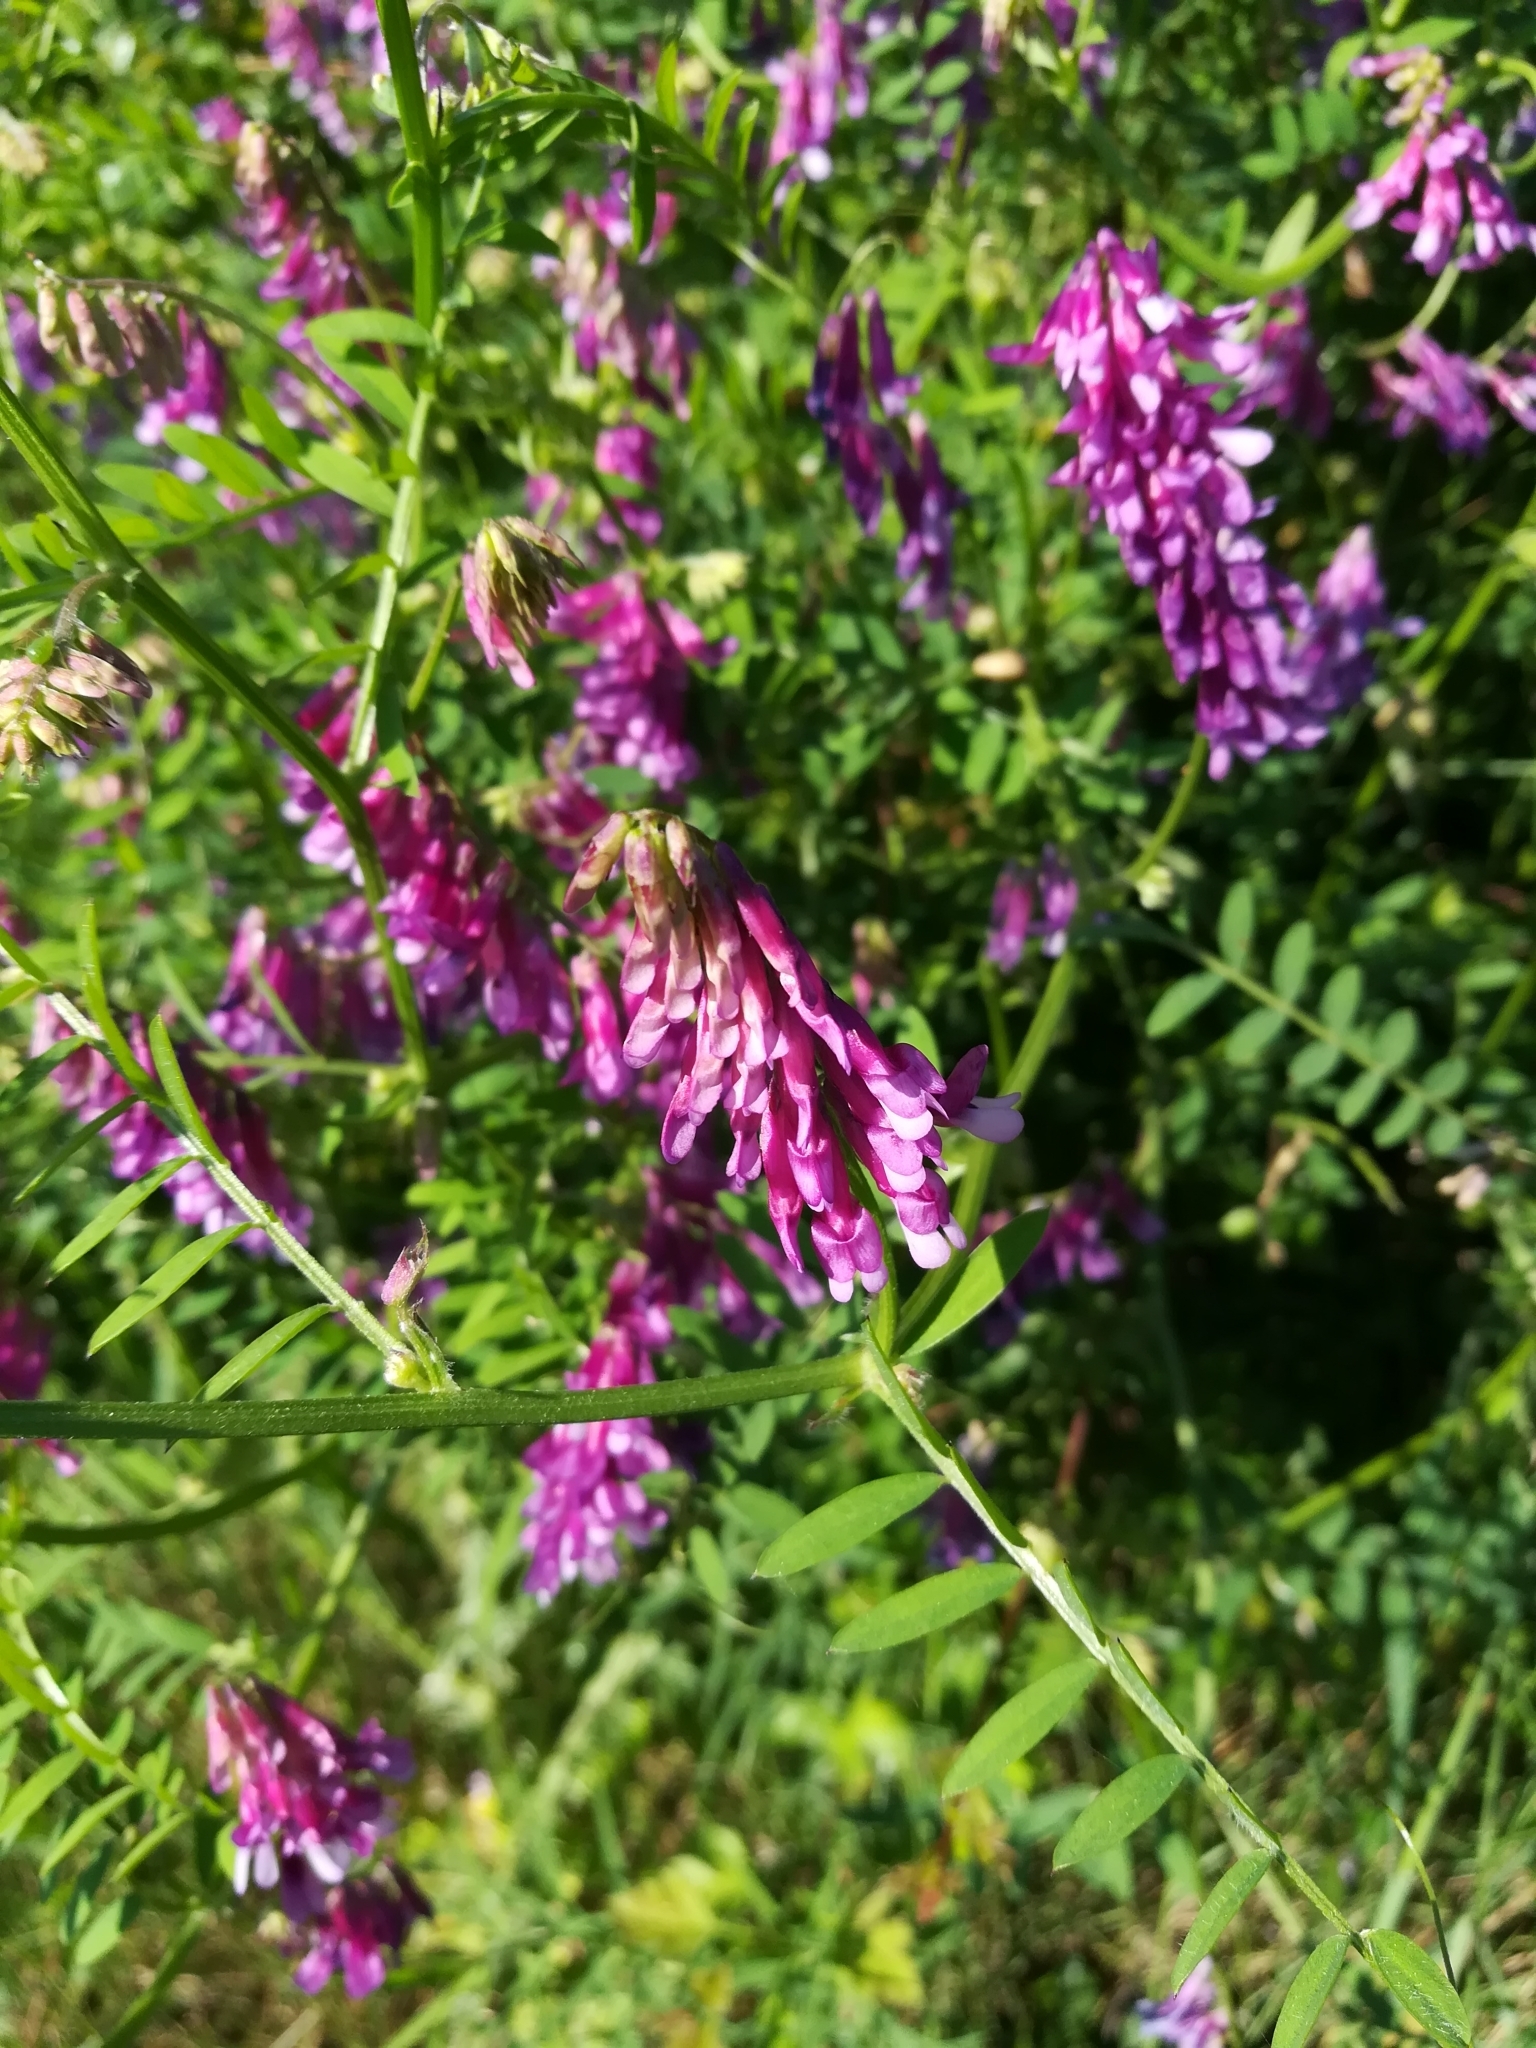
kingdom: Plantae
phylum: Tracheophyta
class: Magnoliopsida
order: Fabales
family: Fabaceae
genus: Vicia
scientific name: Vicia cracca
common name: Bird vetch
